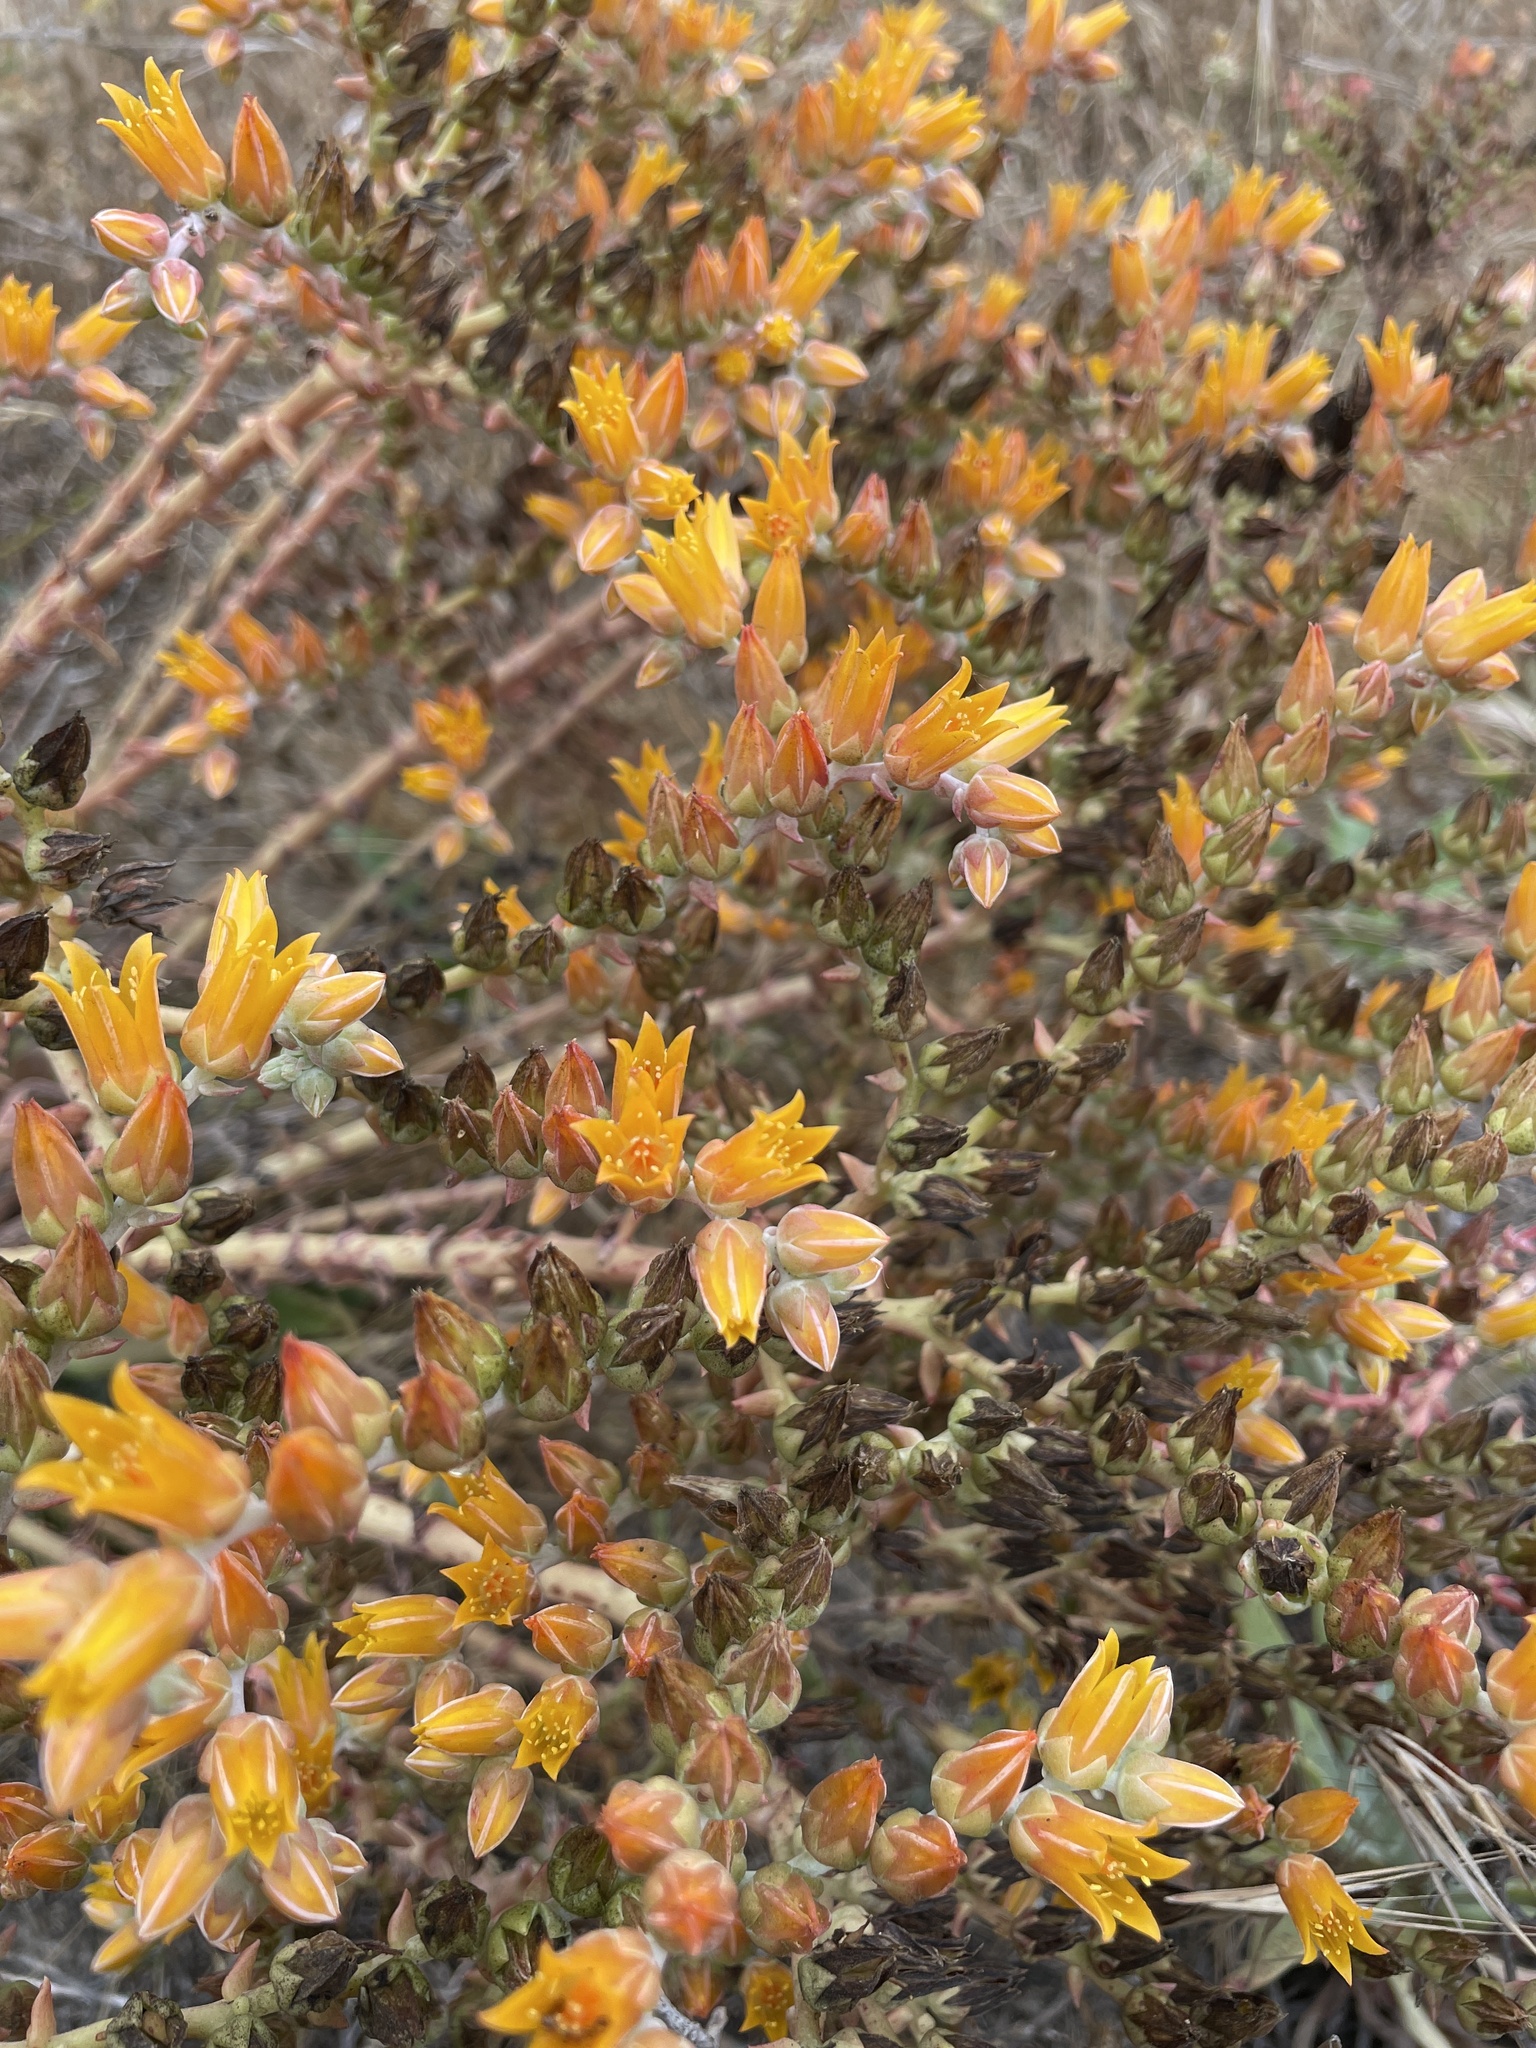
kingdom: Plantae
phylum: Tracheophyta
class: Magnoliopsida
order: Saxifragales
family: Crassulaceae
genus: Dudleya
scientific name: Dudleya lanceolata
